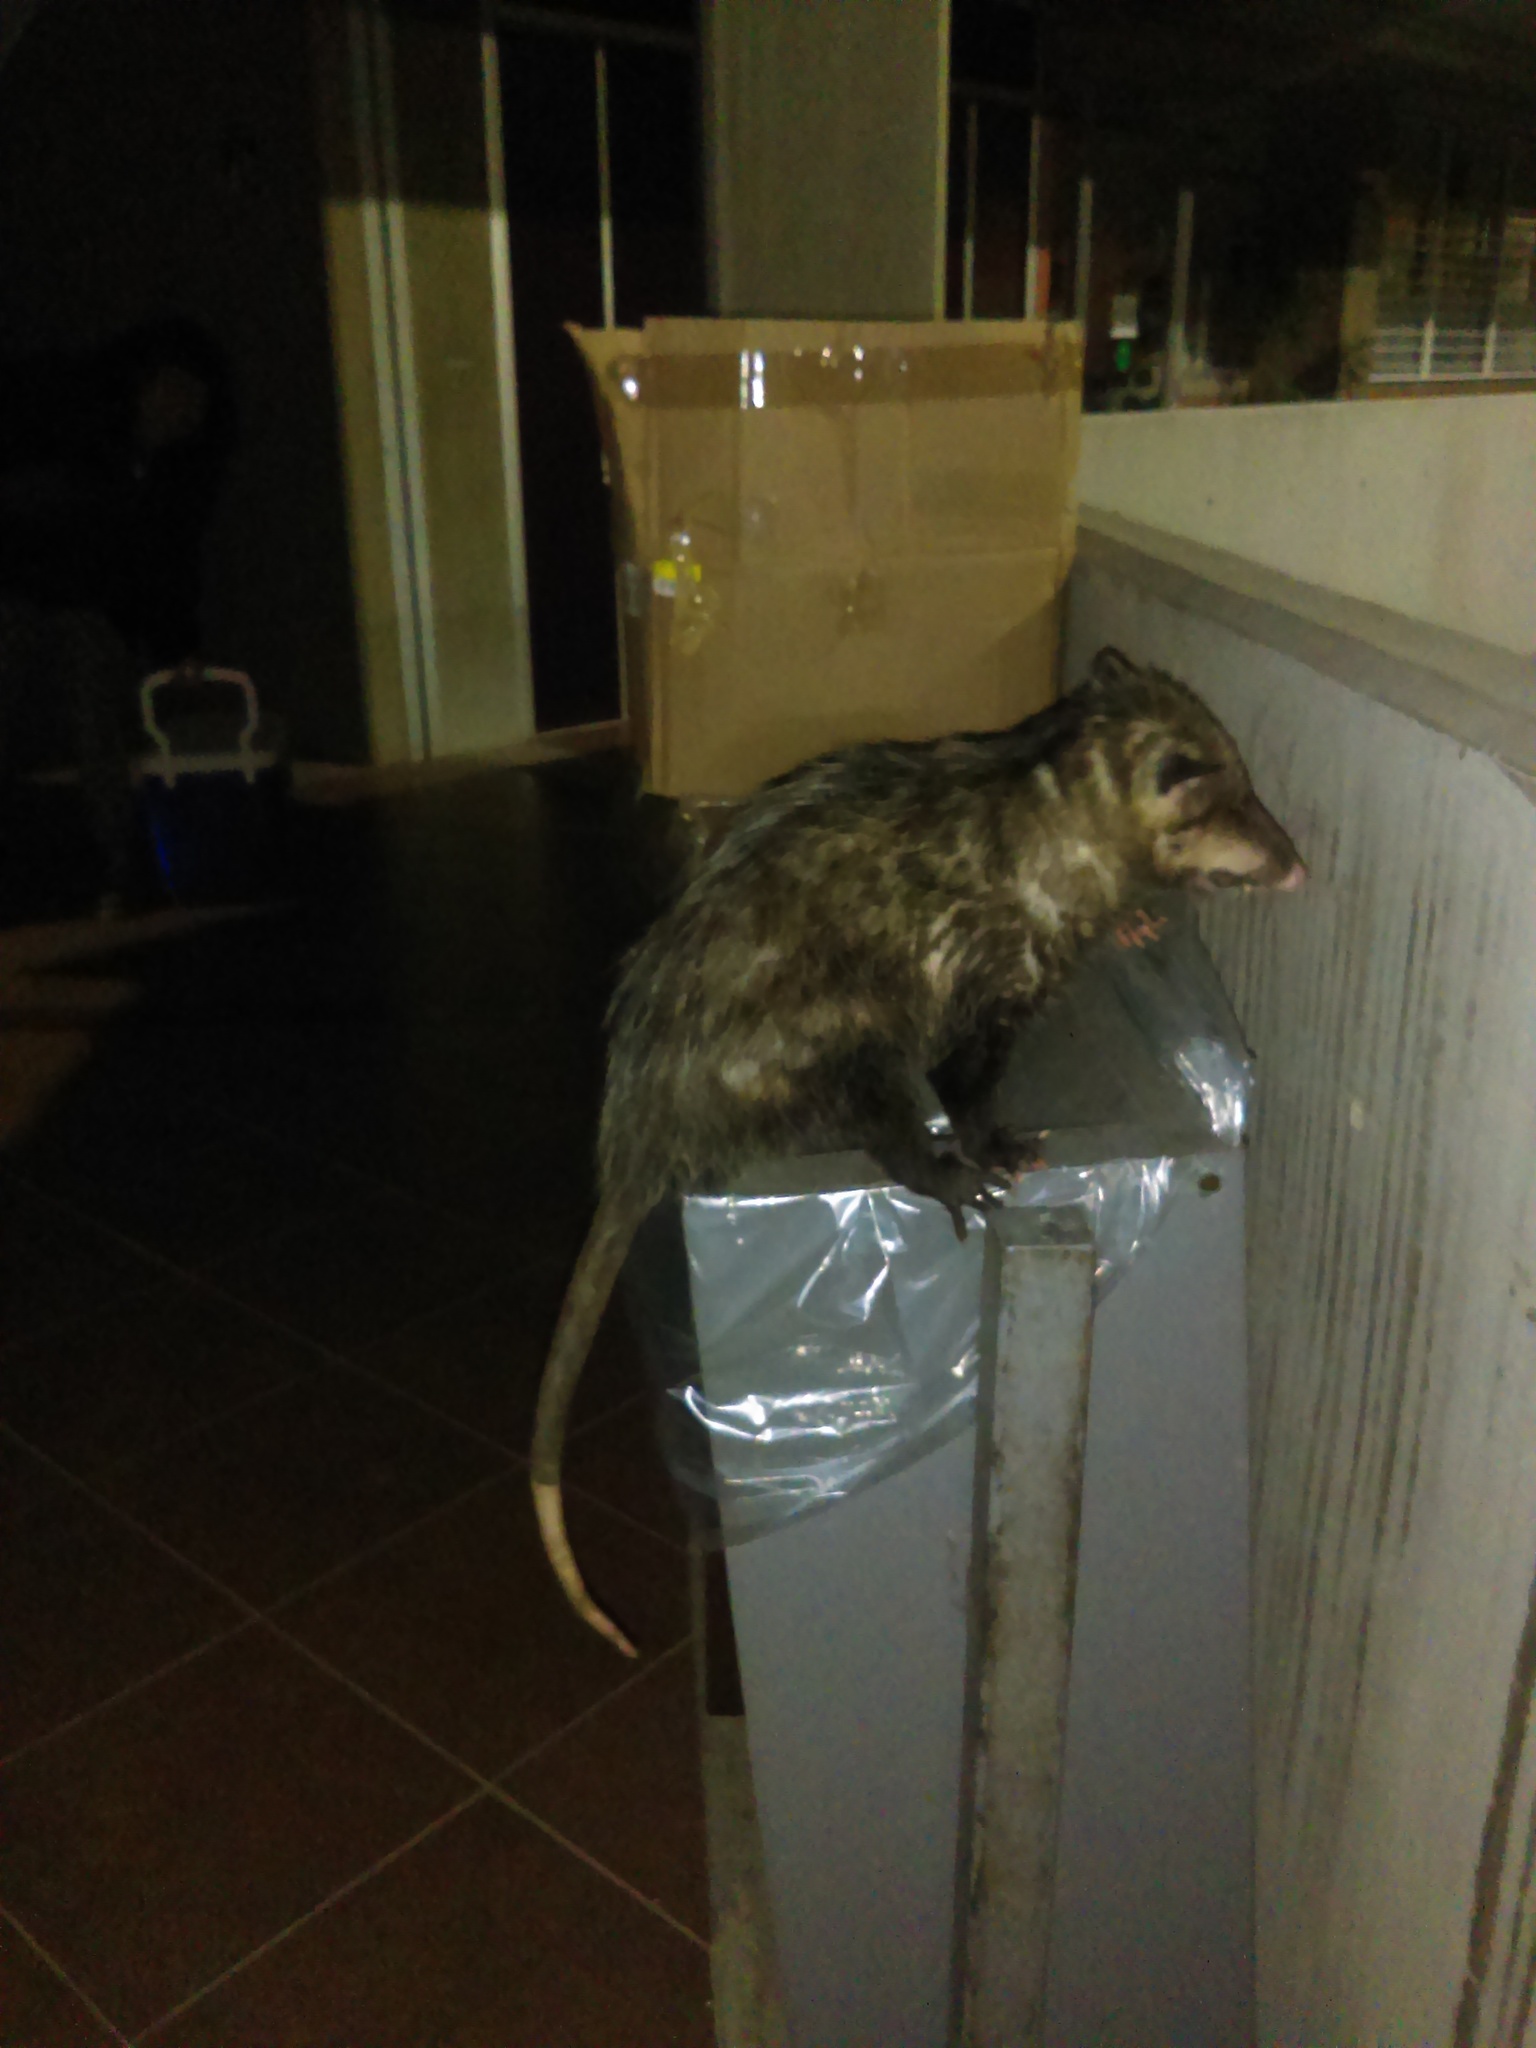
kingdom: Animalia
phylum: Chordata
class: Mammalia
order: Didelphimorphia
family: Didelphidae
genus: Didelphis
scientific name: Didelphis virginiana
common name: Virginia opossum
